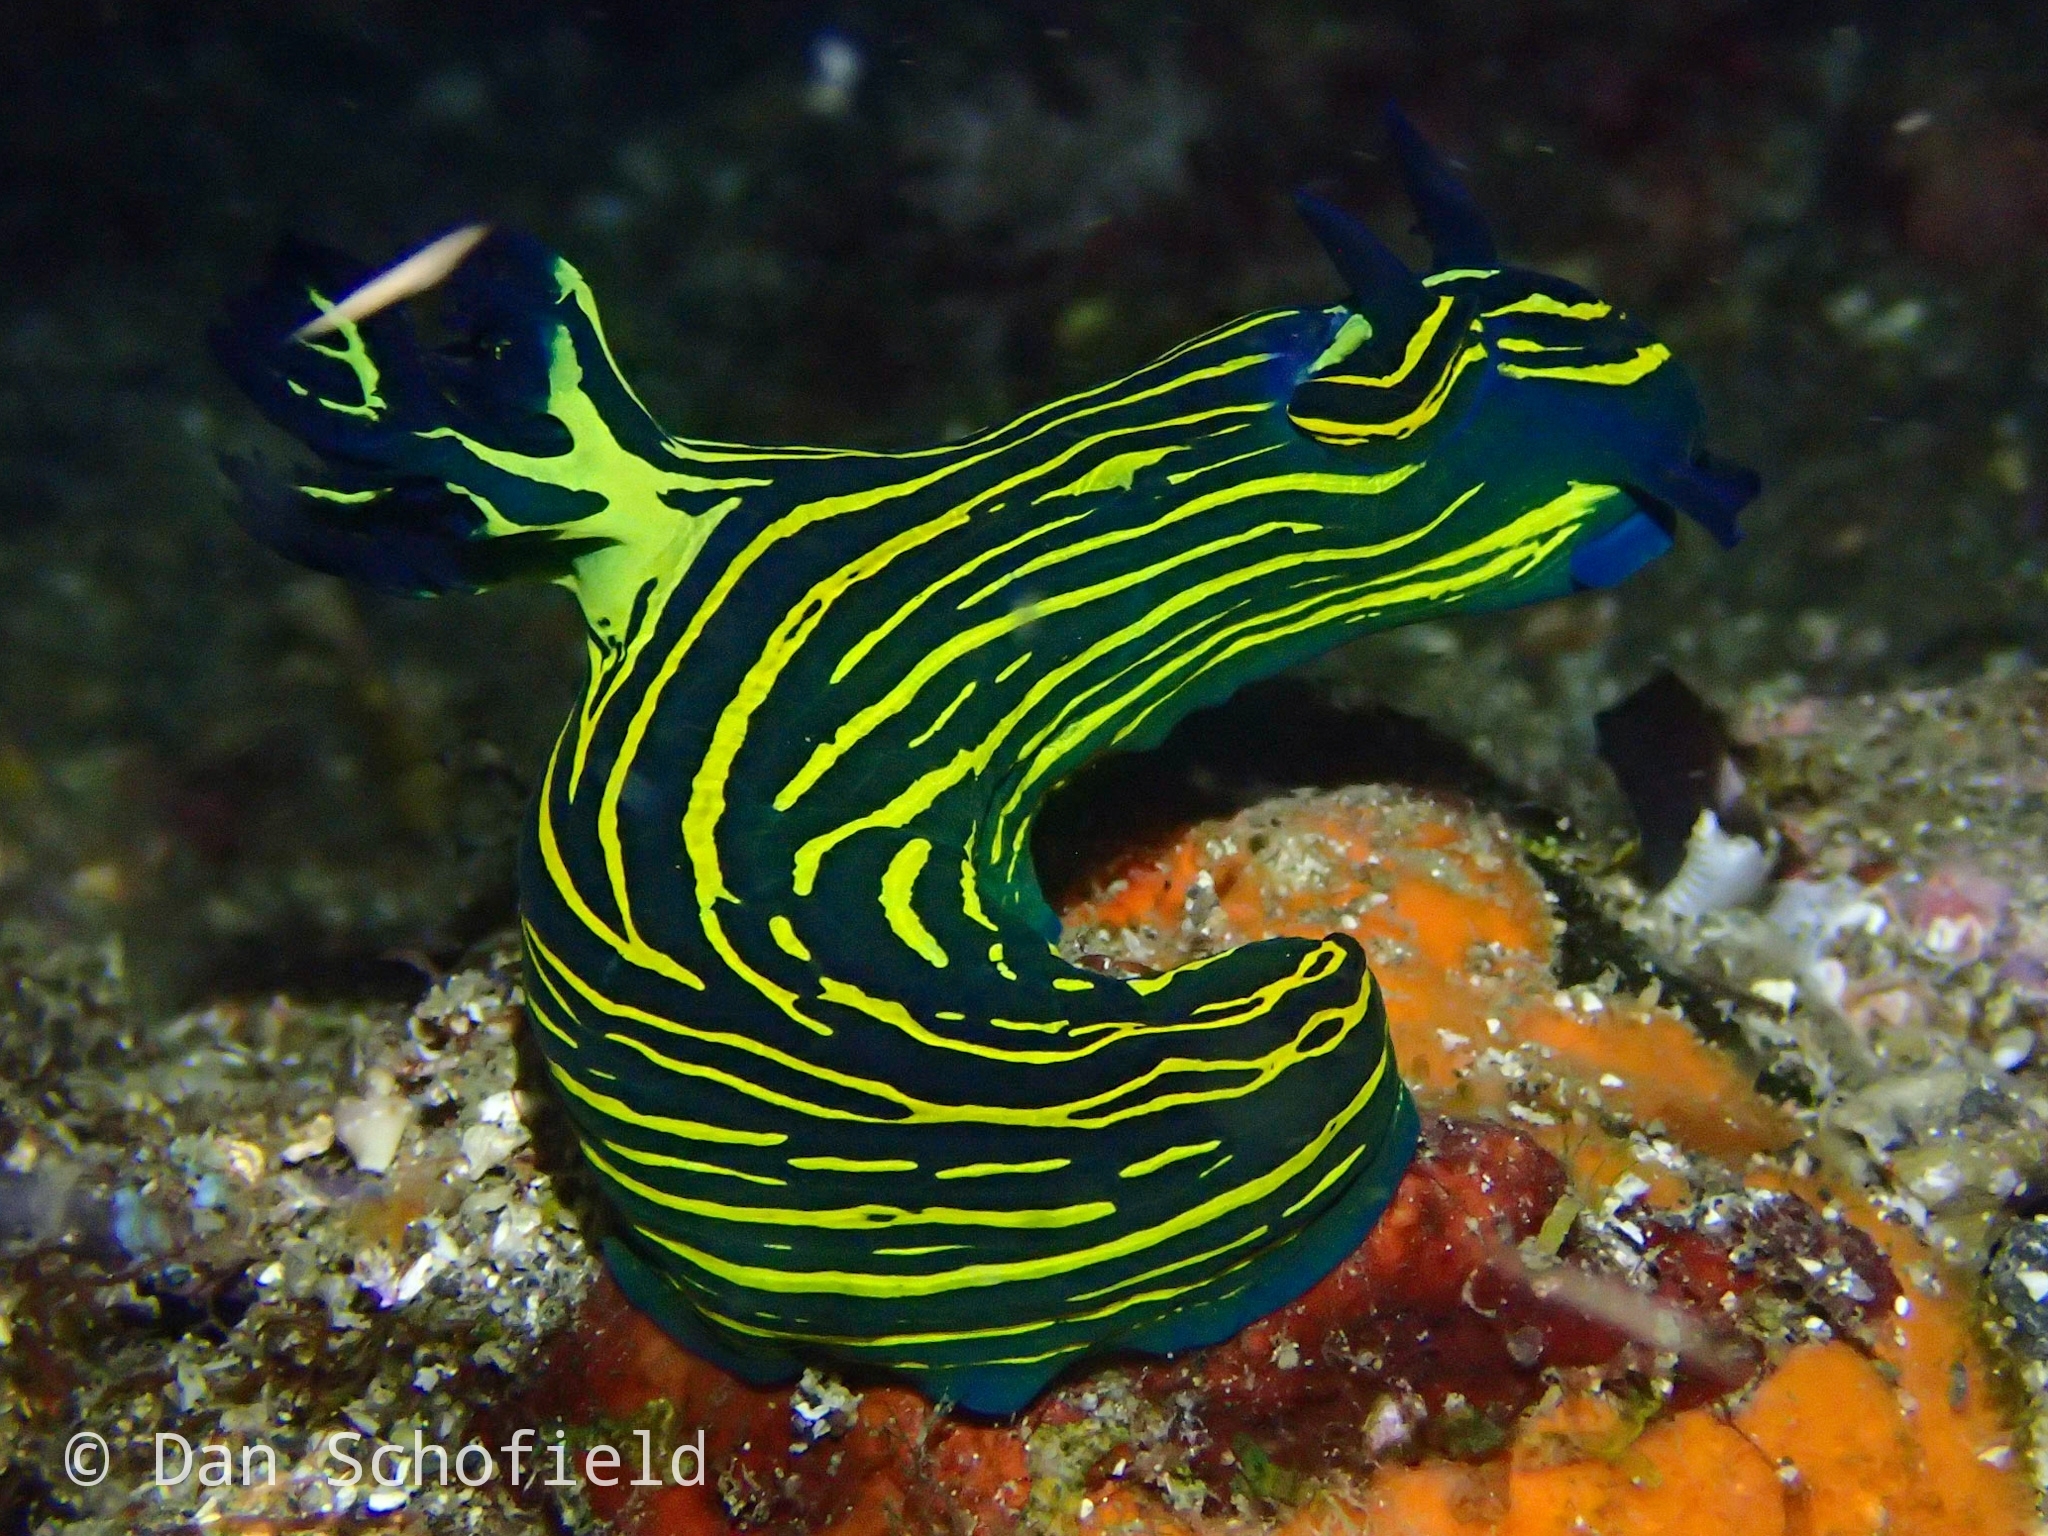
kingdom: Animalia
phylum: Mollusca
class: Gastropoda
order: Nudibranchia
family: Polyceridae
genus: Tyrannodoris
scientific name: Tyrannodoris luteolineata
